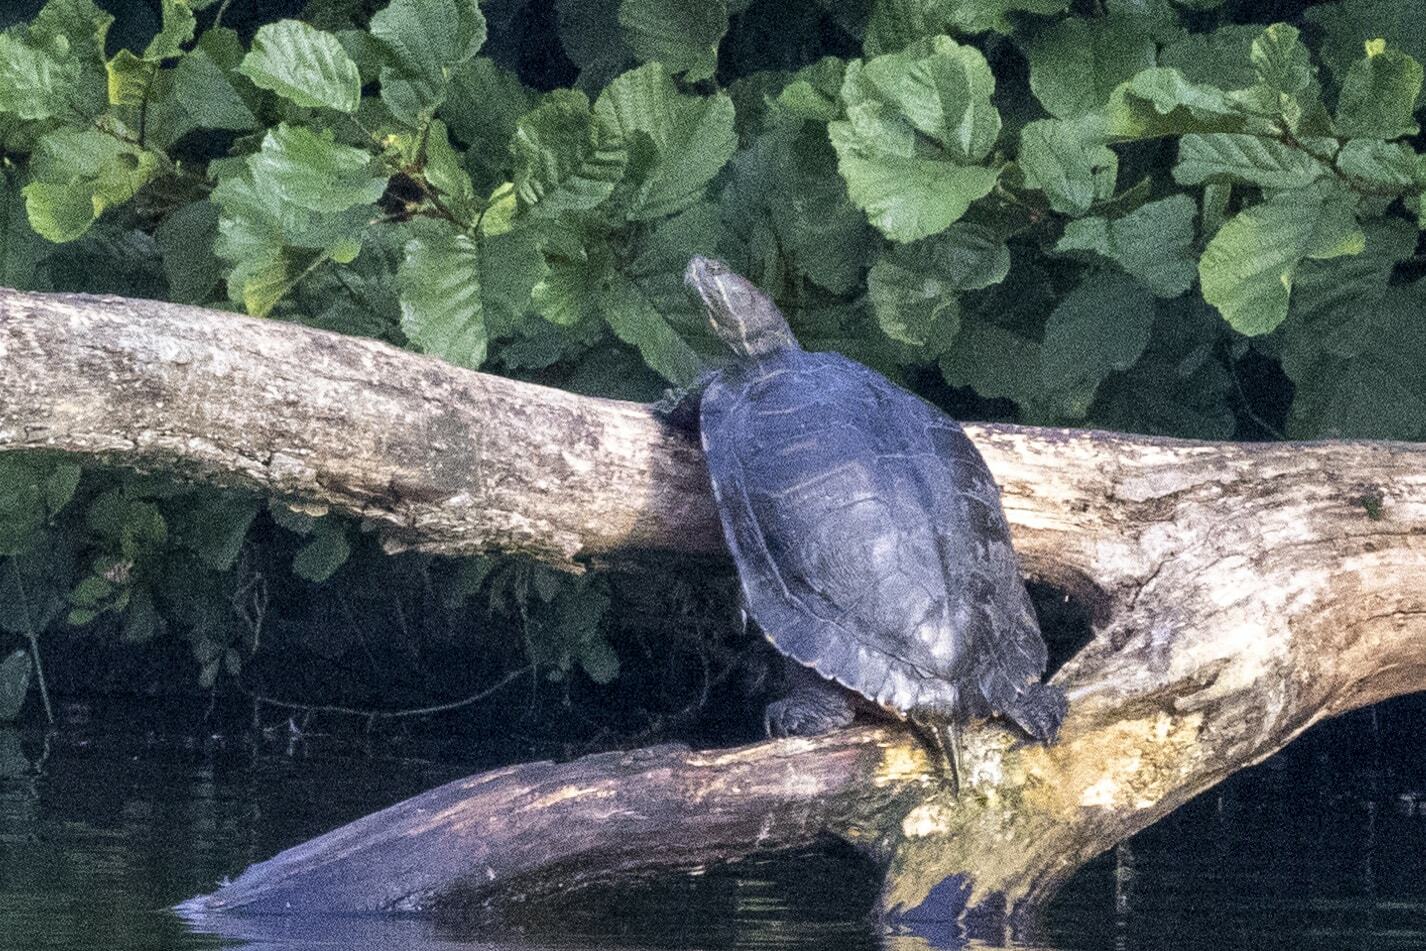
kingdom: Animalia
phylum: Chordata
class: Testudines
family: Emydidae
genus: Trachemys
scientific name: Trachemys scripta
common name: Slider
